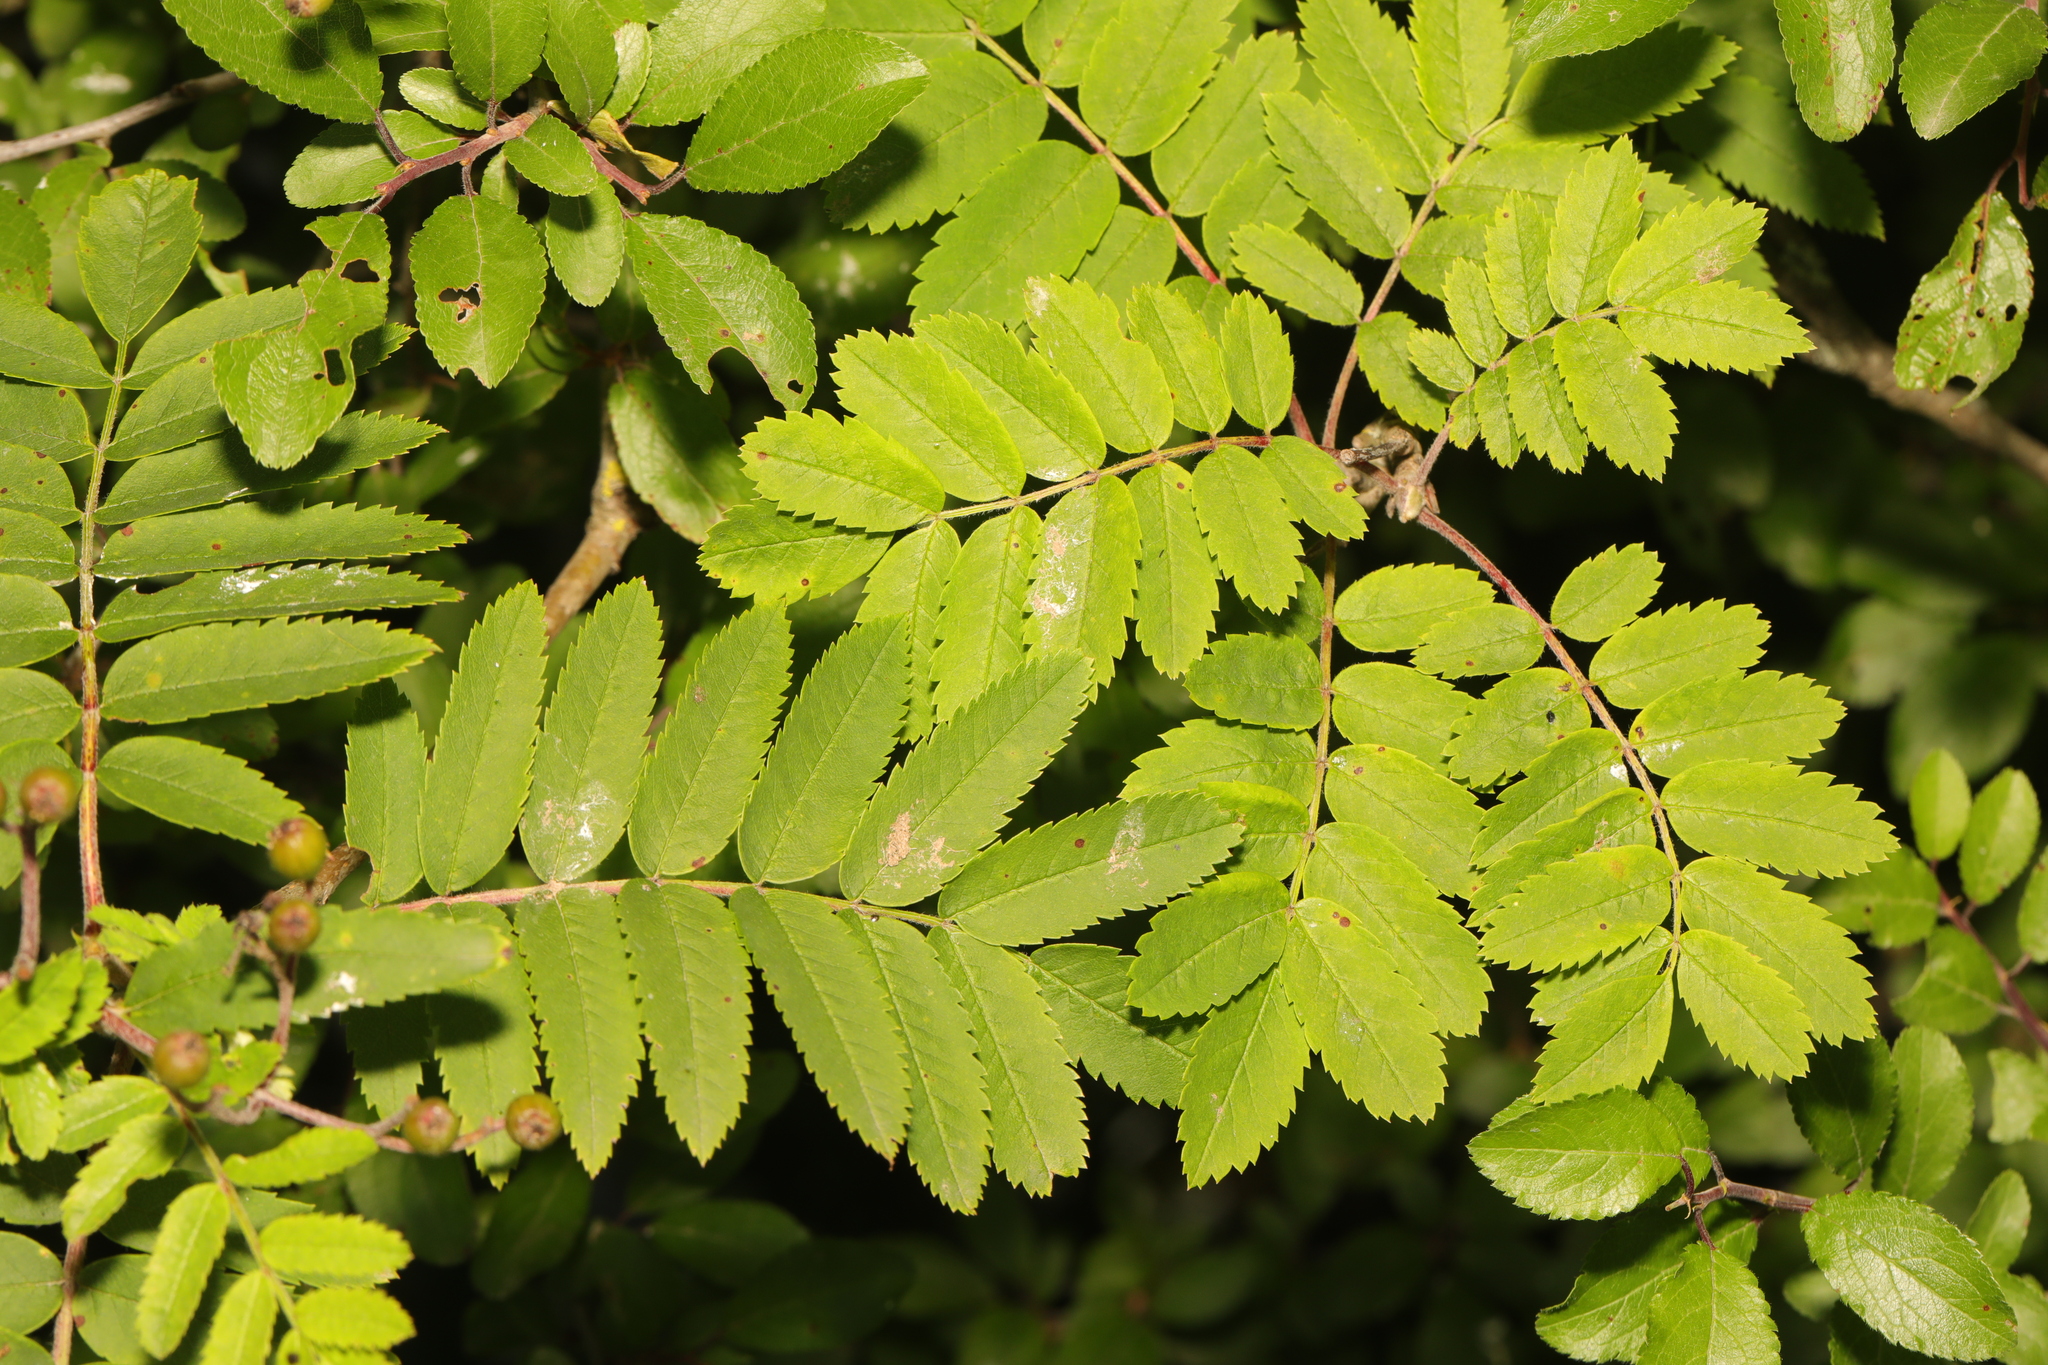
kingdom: Plantae
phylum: Tracheophyta
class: Magnoliopsida
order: Rosales
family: Rosaceae
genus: Sorbus
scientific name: Sorbus aucuparia
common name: Rowan
